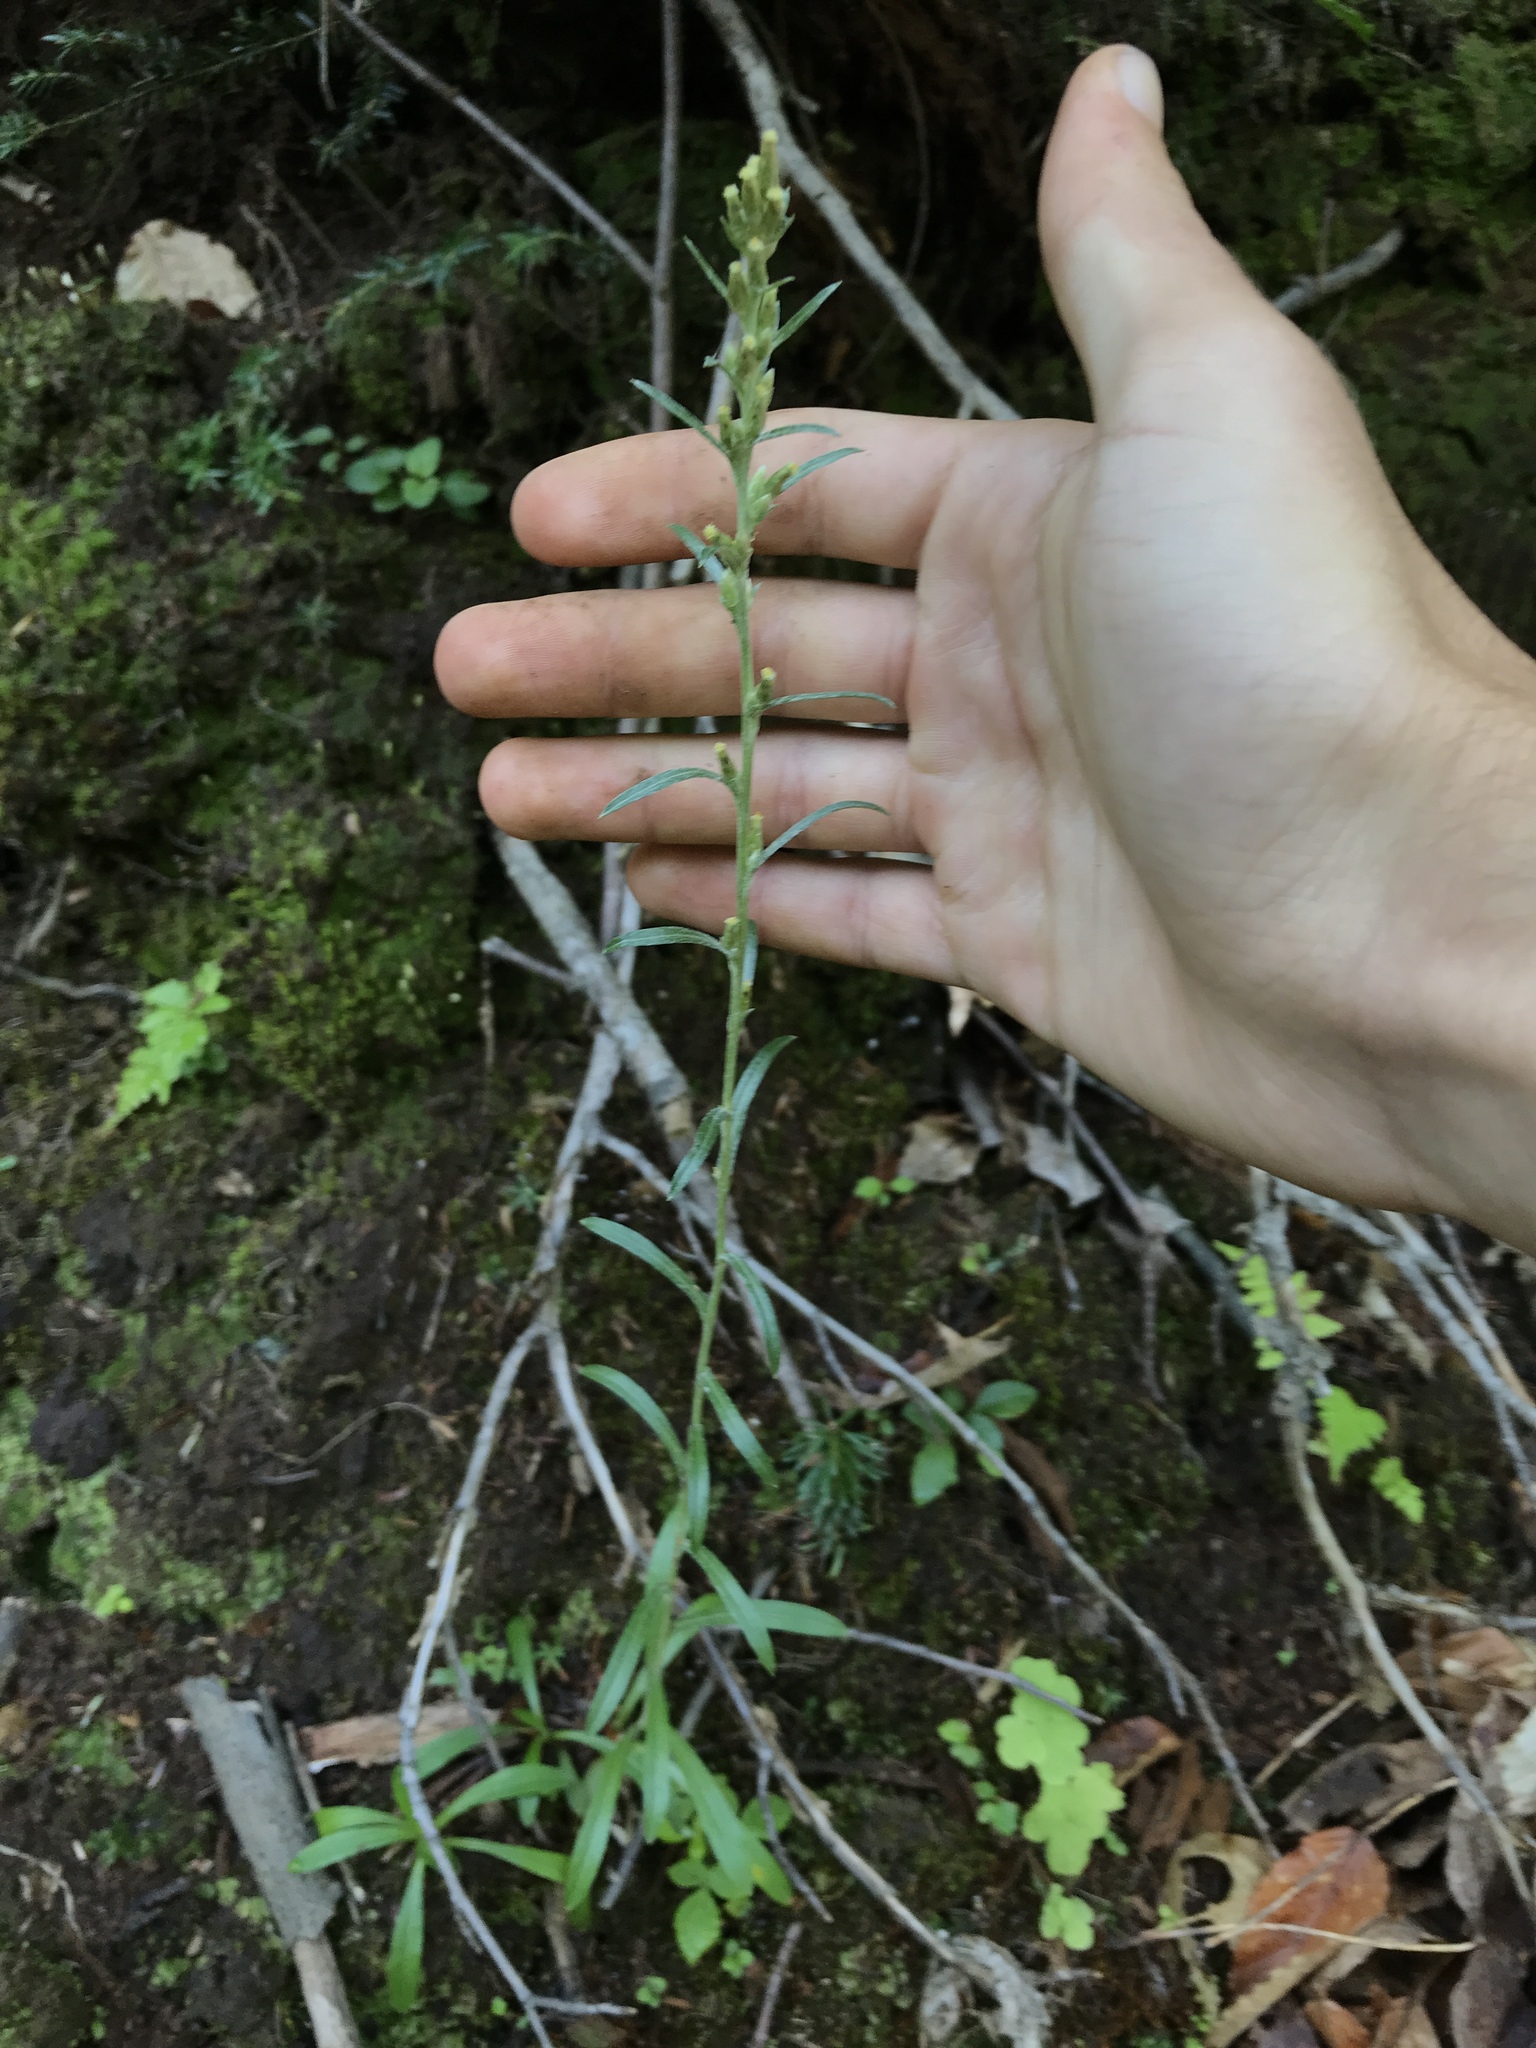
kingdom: Plantae
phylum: Tracheophyta
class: Magnoliopsida
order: Asterales
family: Asteraceae
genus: Omalotheca
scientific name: Omalotheca sylvatica
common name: Heath cudweed
